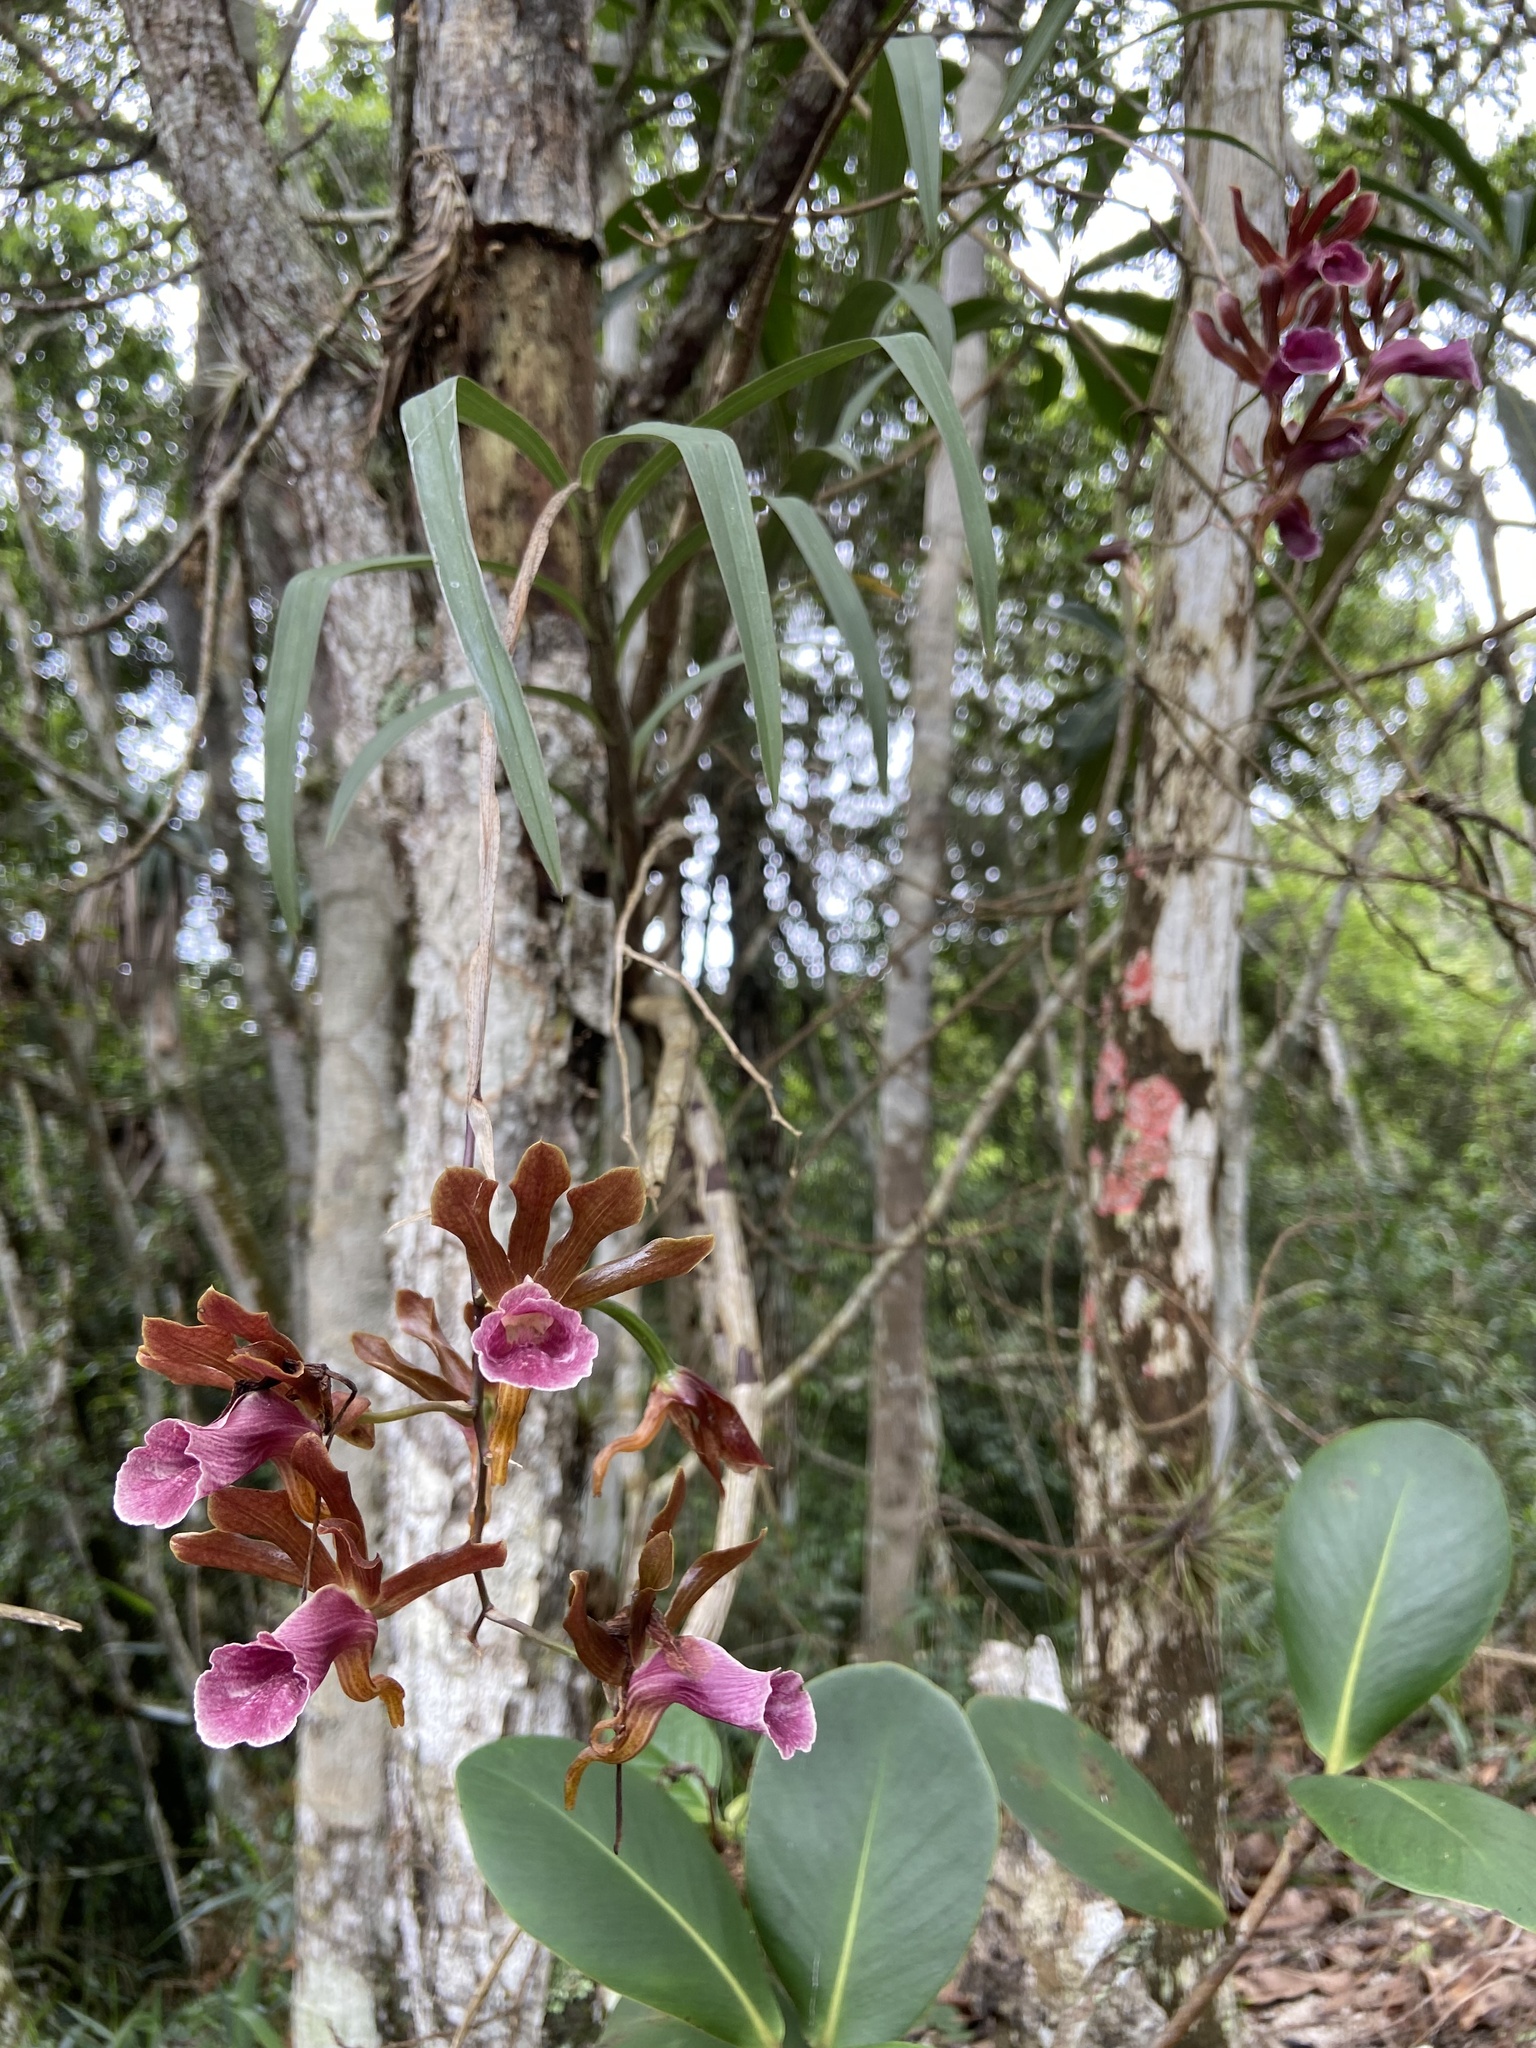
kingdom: Plantae
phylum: Tracheophyta
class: Liliopsida
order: Asparagales
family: Orchidaceae
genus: Galeandra
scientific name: Galeandra stangeana
